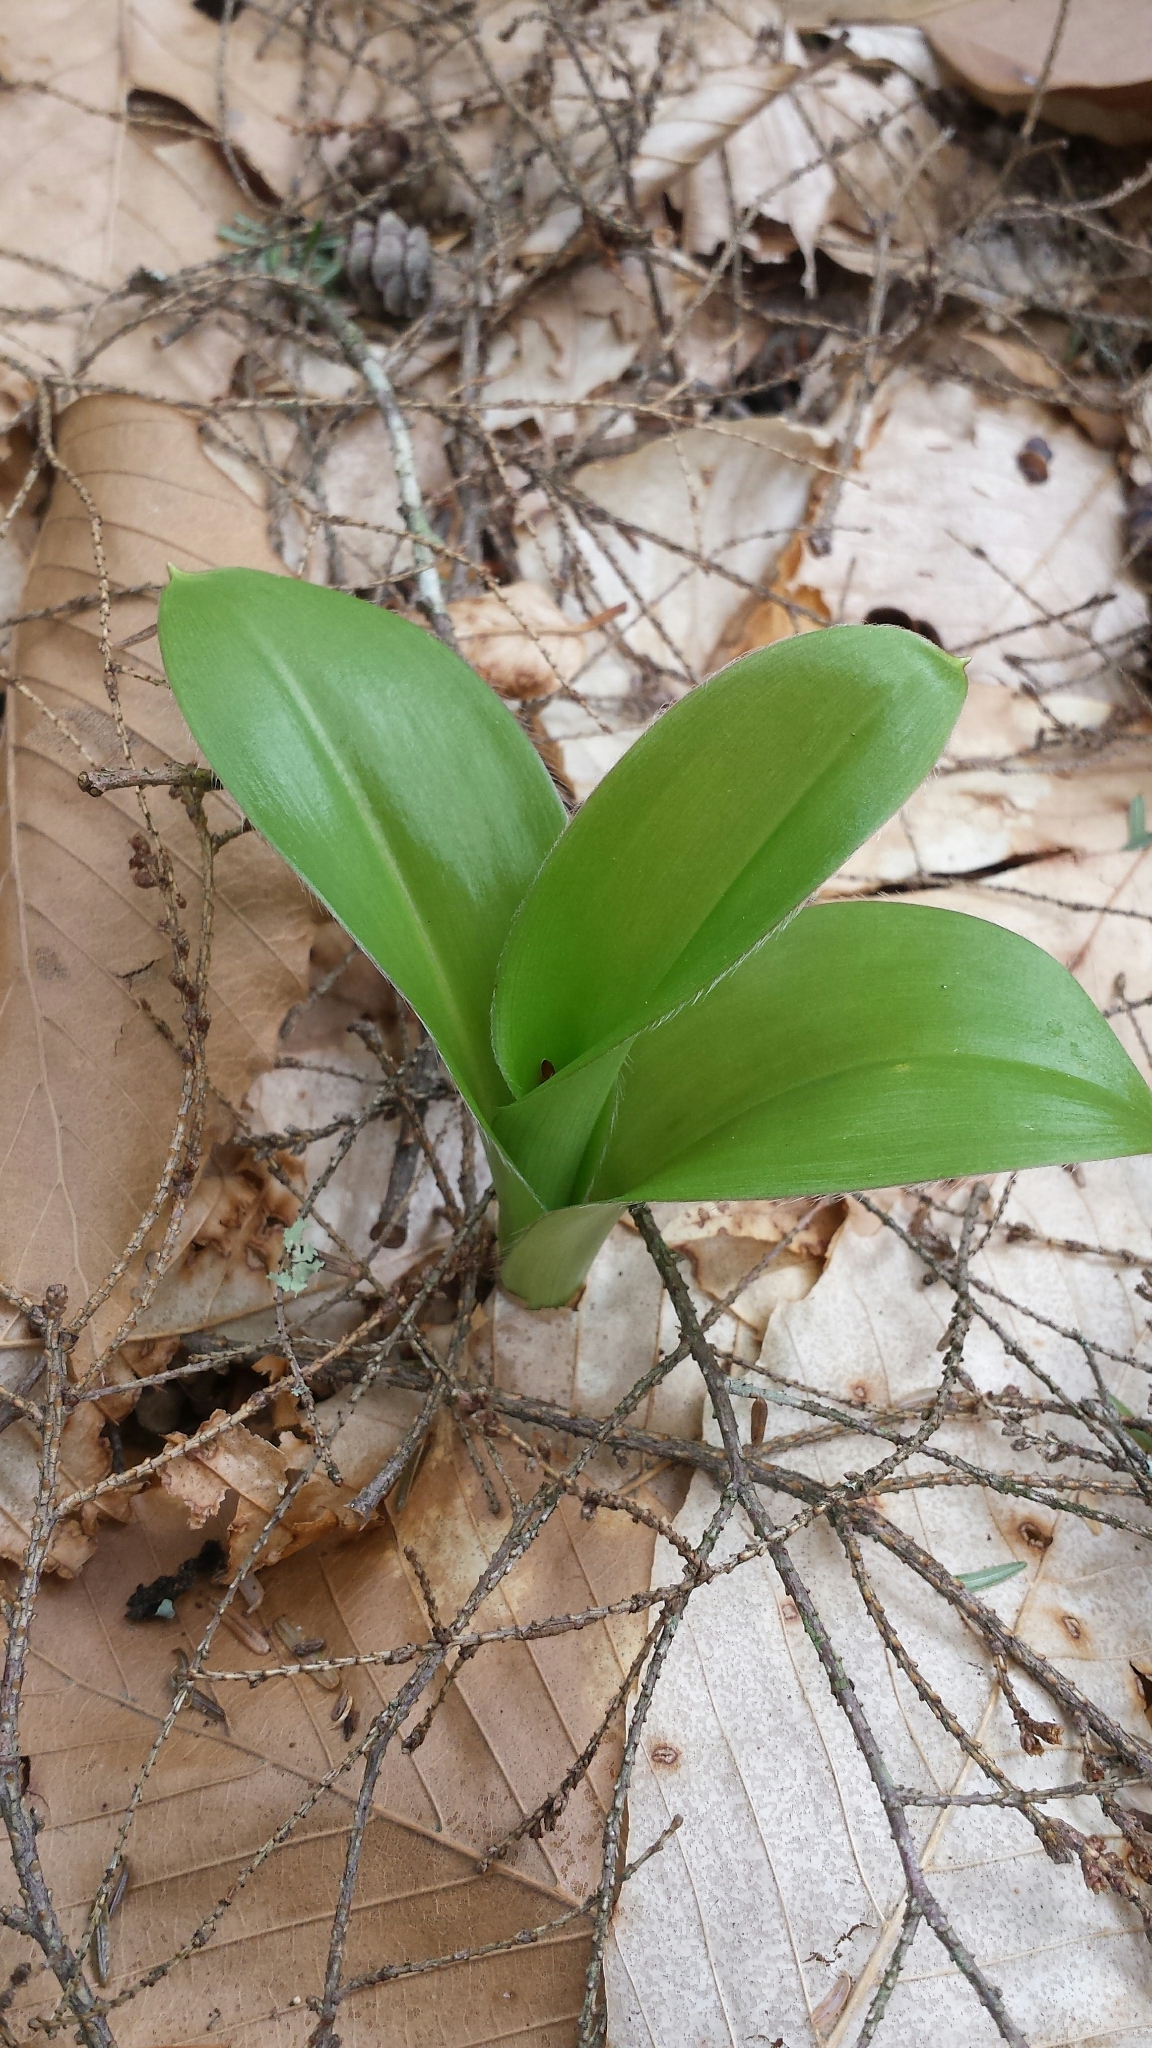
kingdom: Plantae
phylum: Tracheophyta
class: Liliopsida
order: Liliales
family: Liliaceae
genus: Clintonia
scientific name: Clintonia borealis
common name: Yellow clintonia
